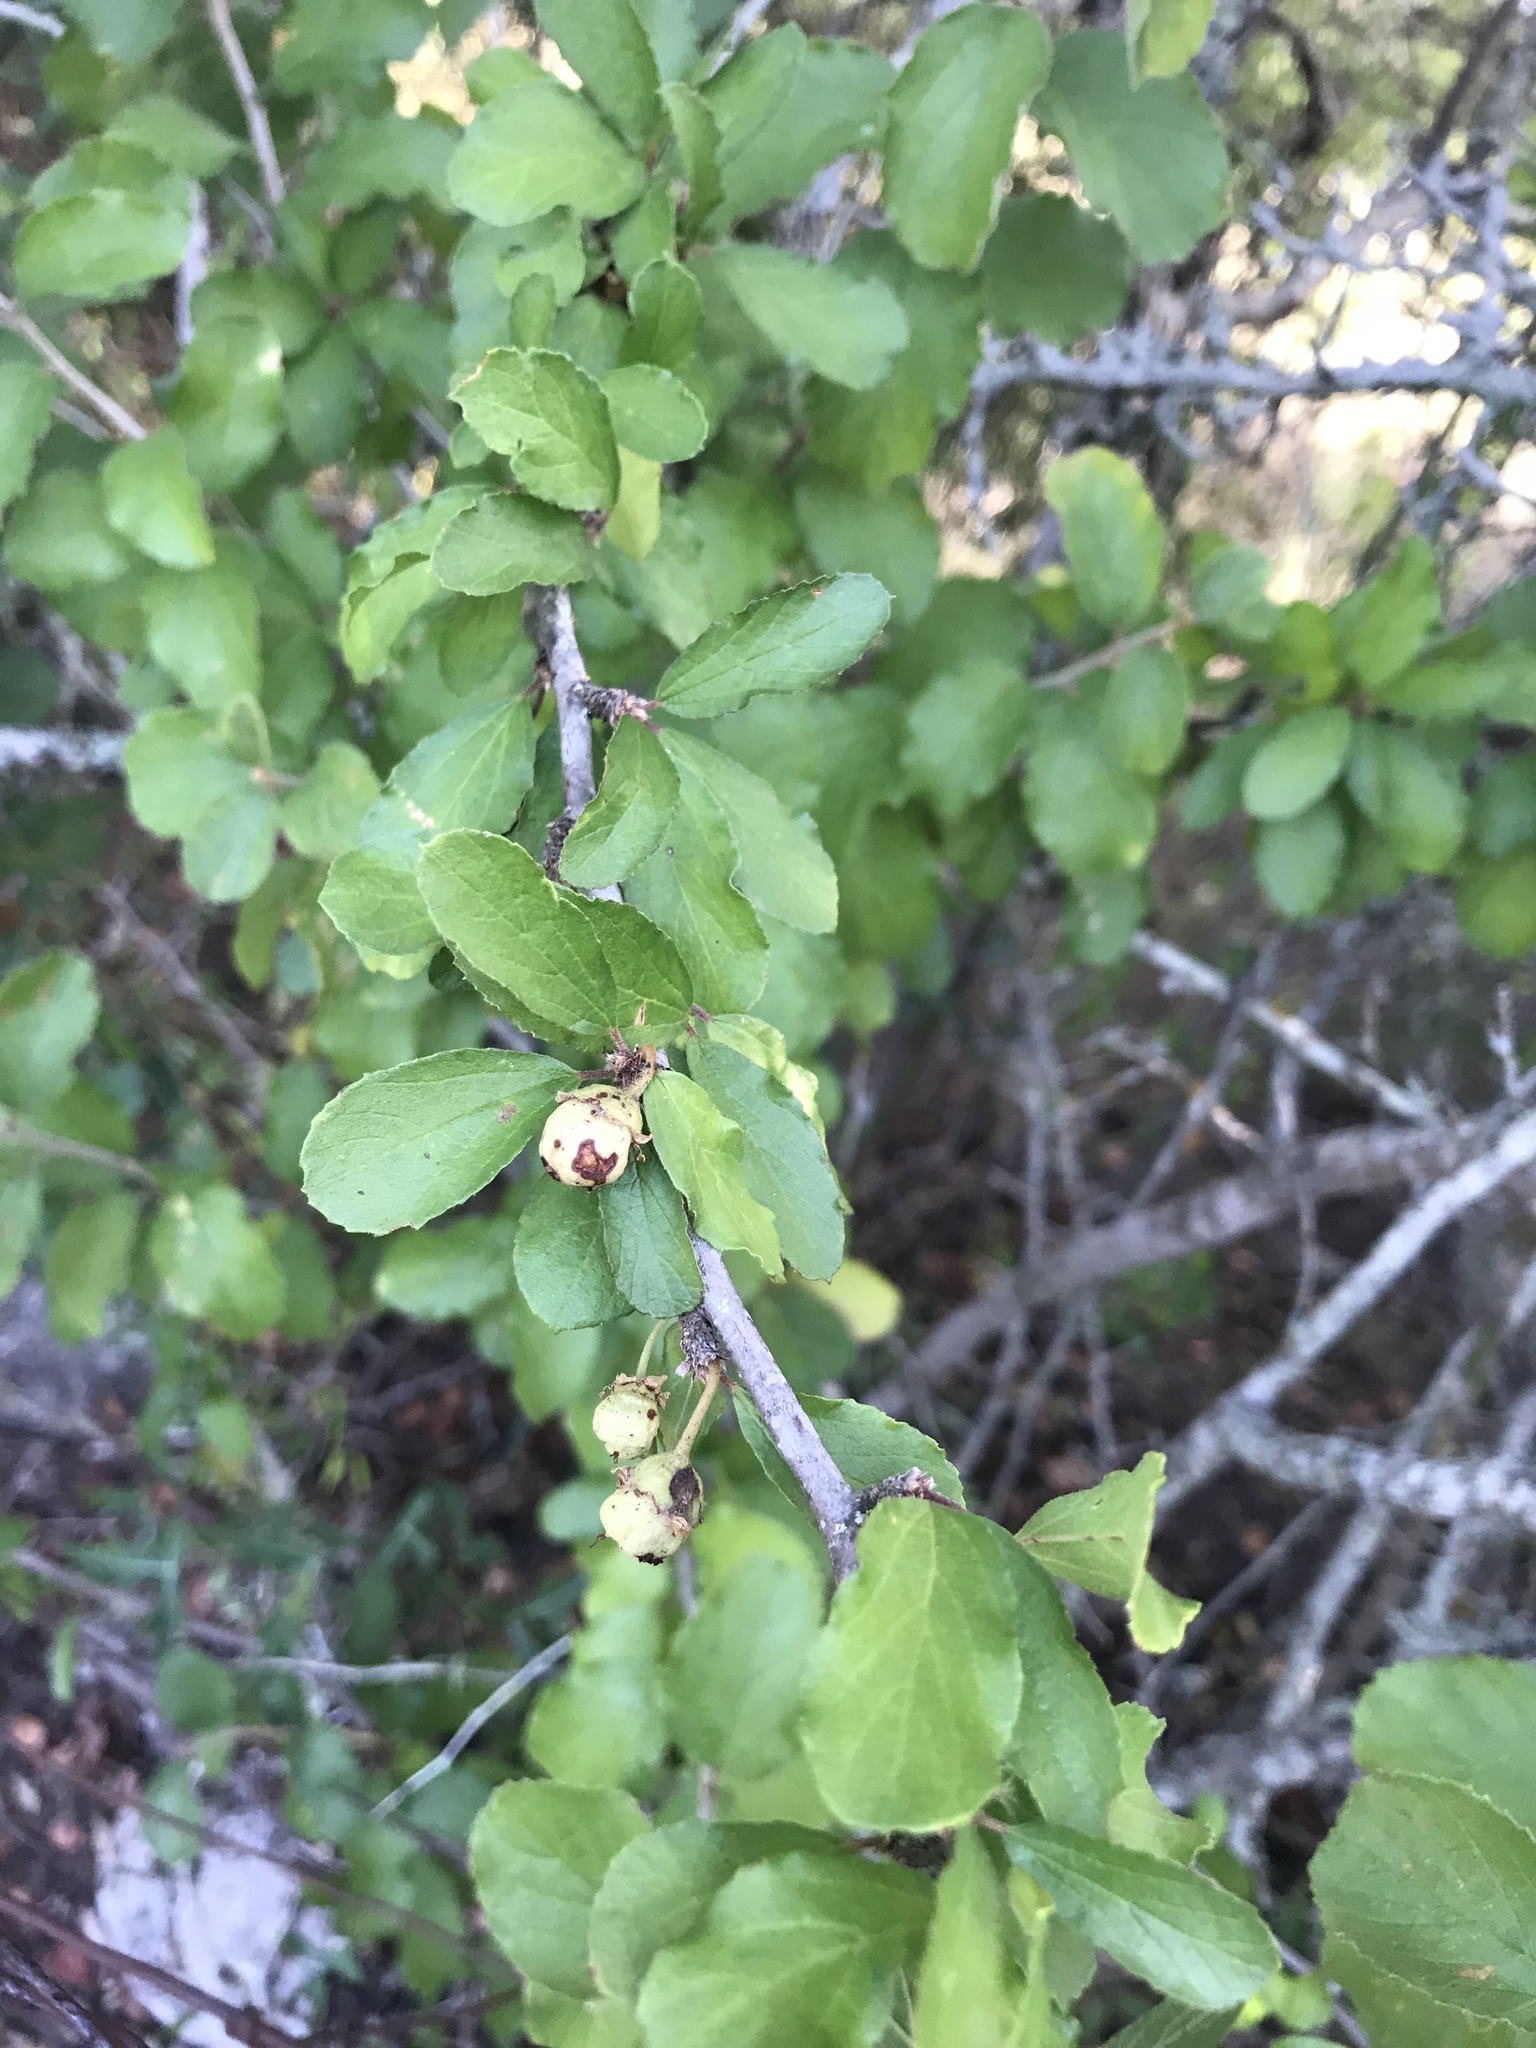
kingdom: Plantae
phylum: Tracheophyta
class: Magnoliopsida
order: Rosales
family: Rhamnaceae
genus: Colubrina
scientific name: Colubrina texensis
